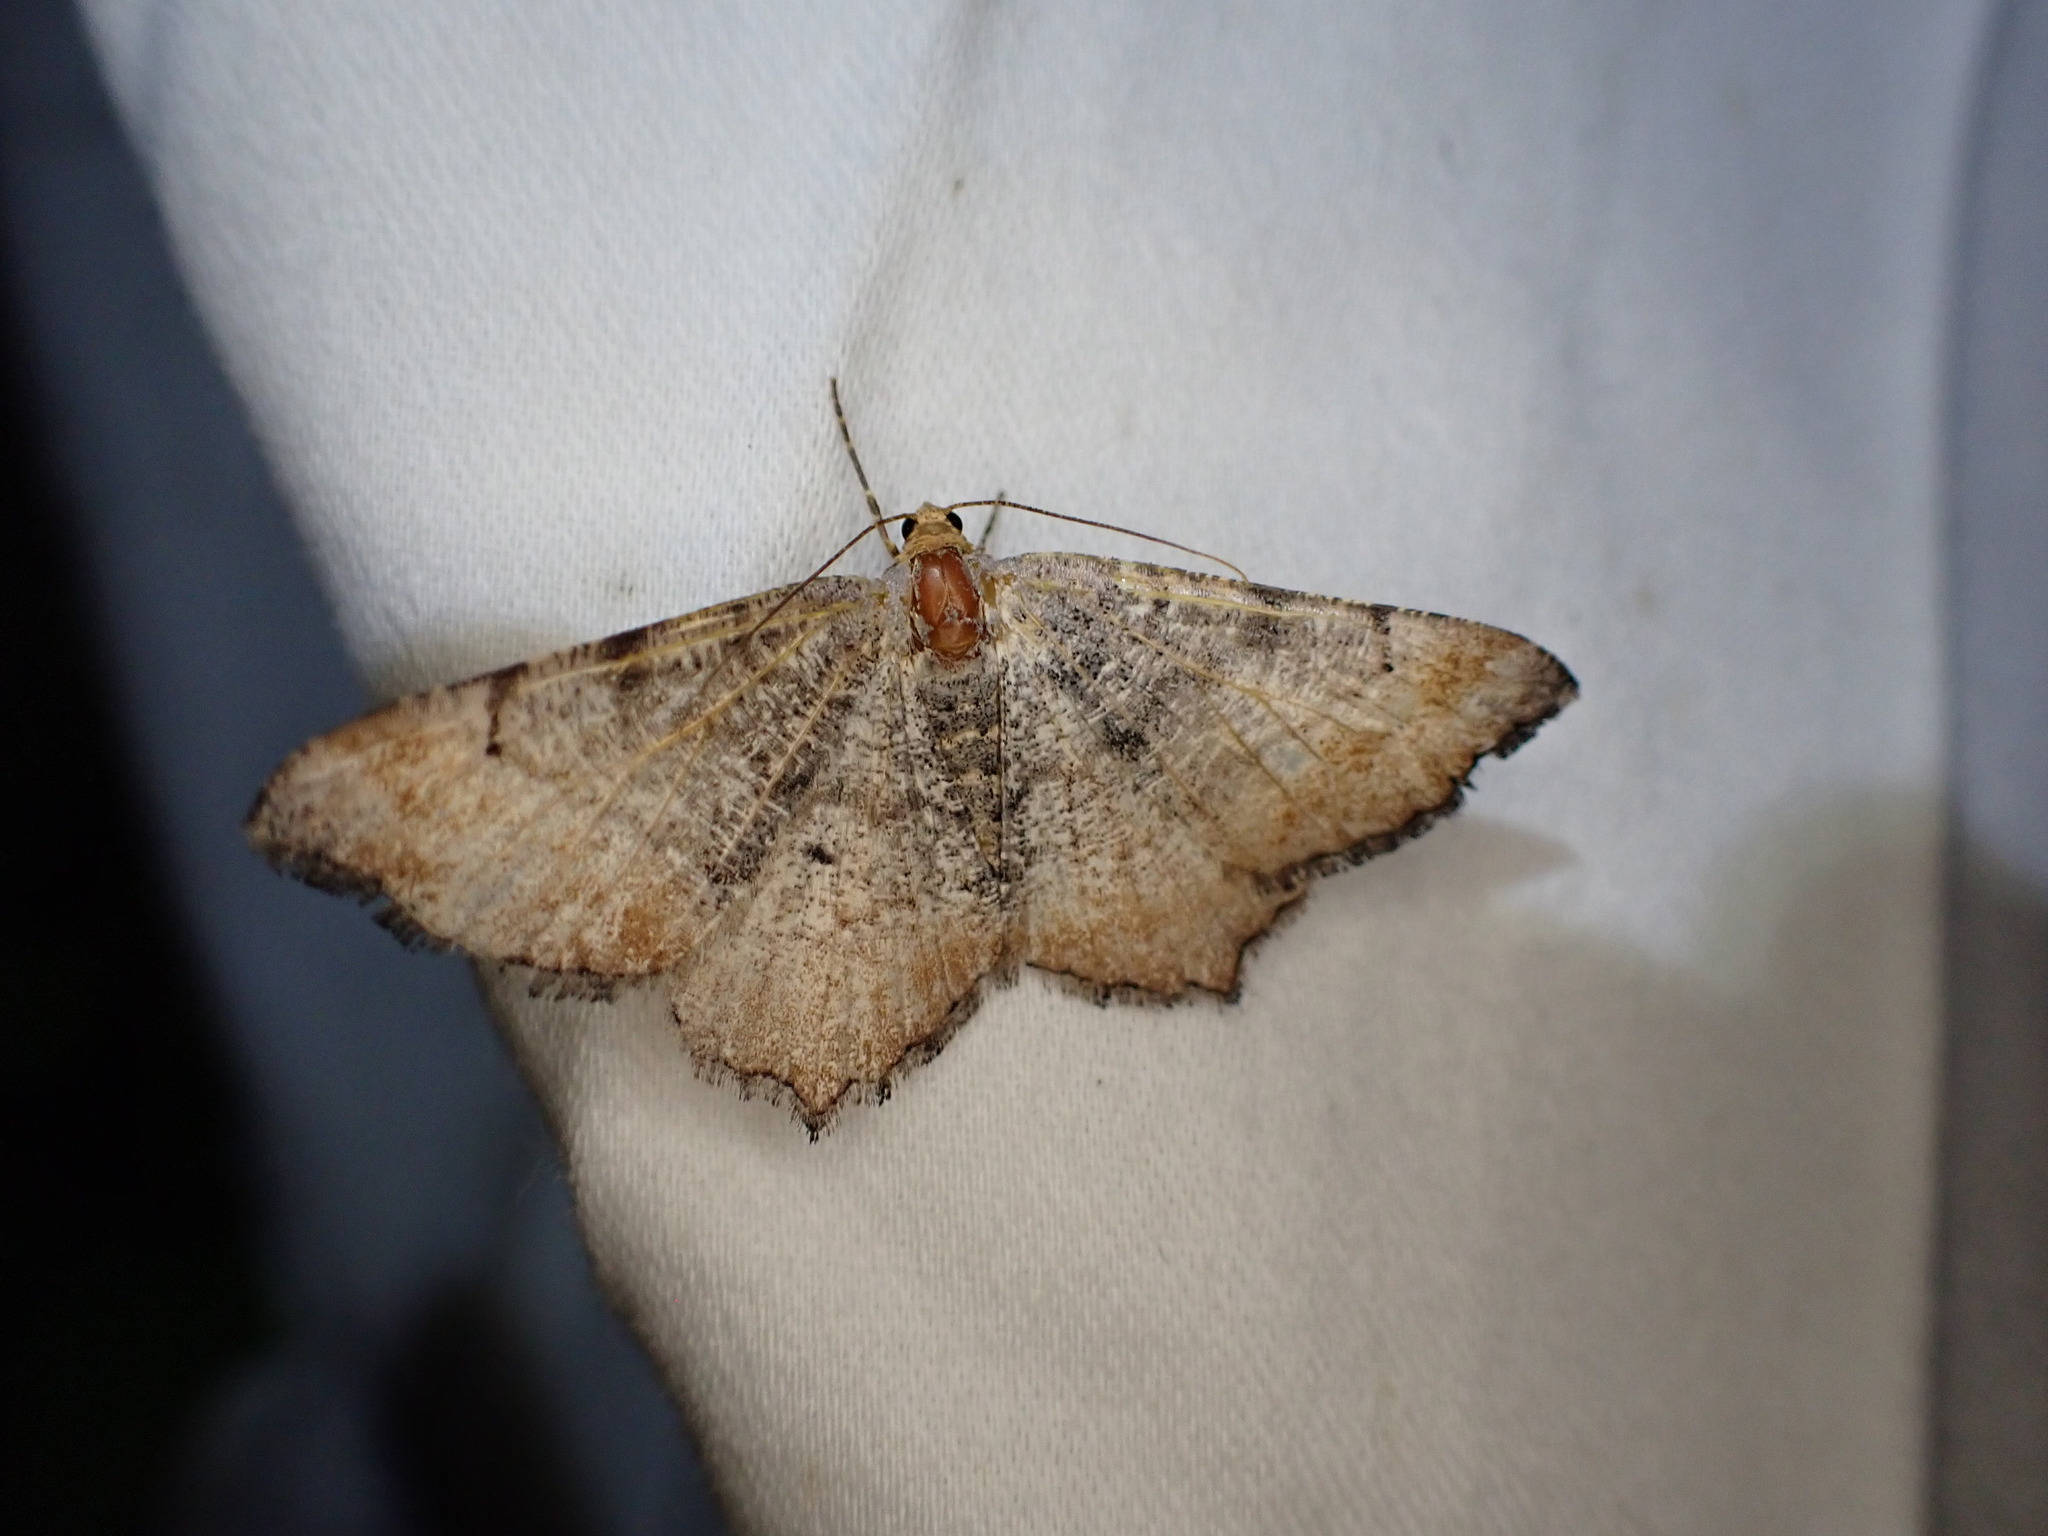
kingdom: Animalia
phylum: Arthropoda
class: Insecta
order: Lepidoptera
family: Geometridae
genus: Macaria
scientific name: Macaria adonis
